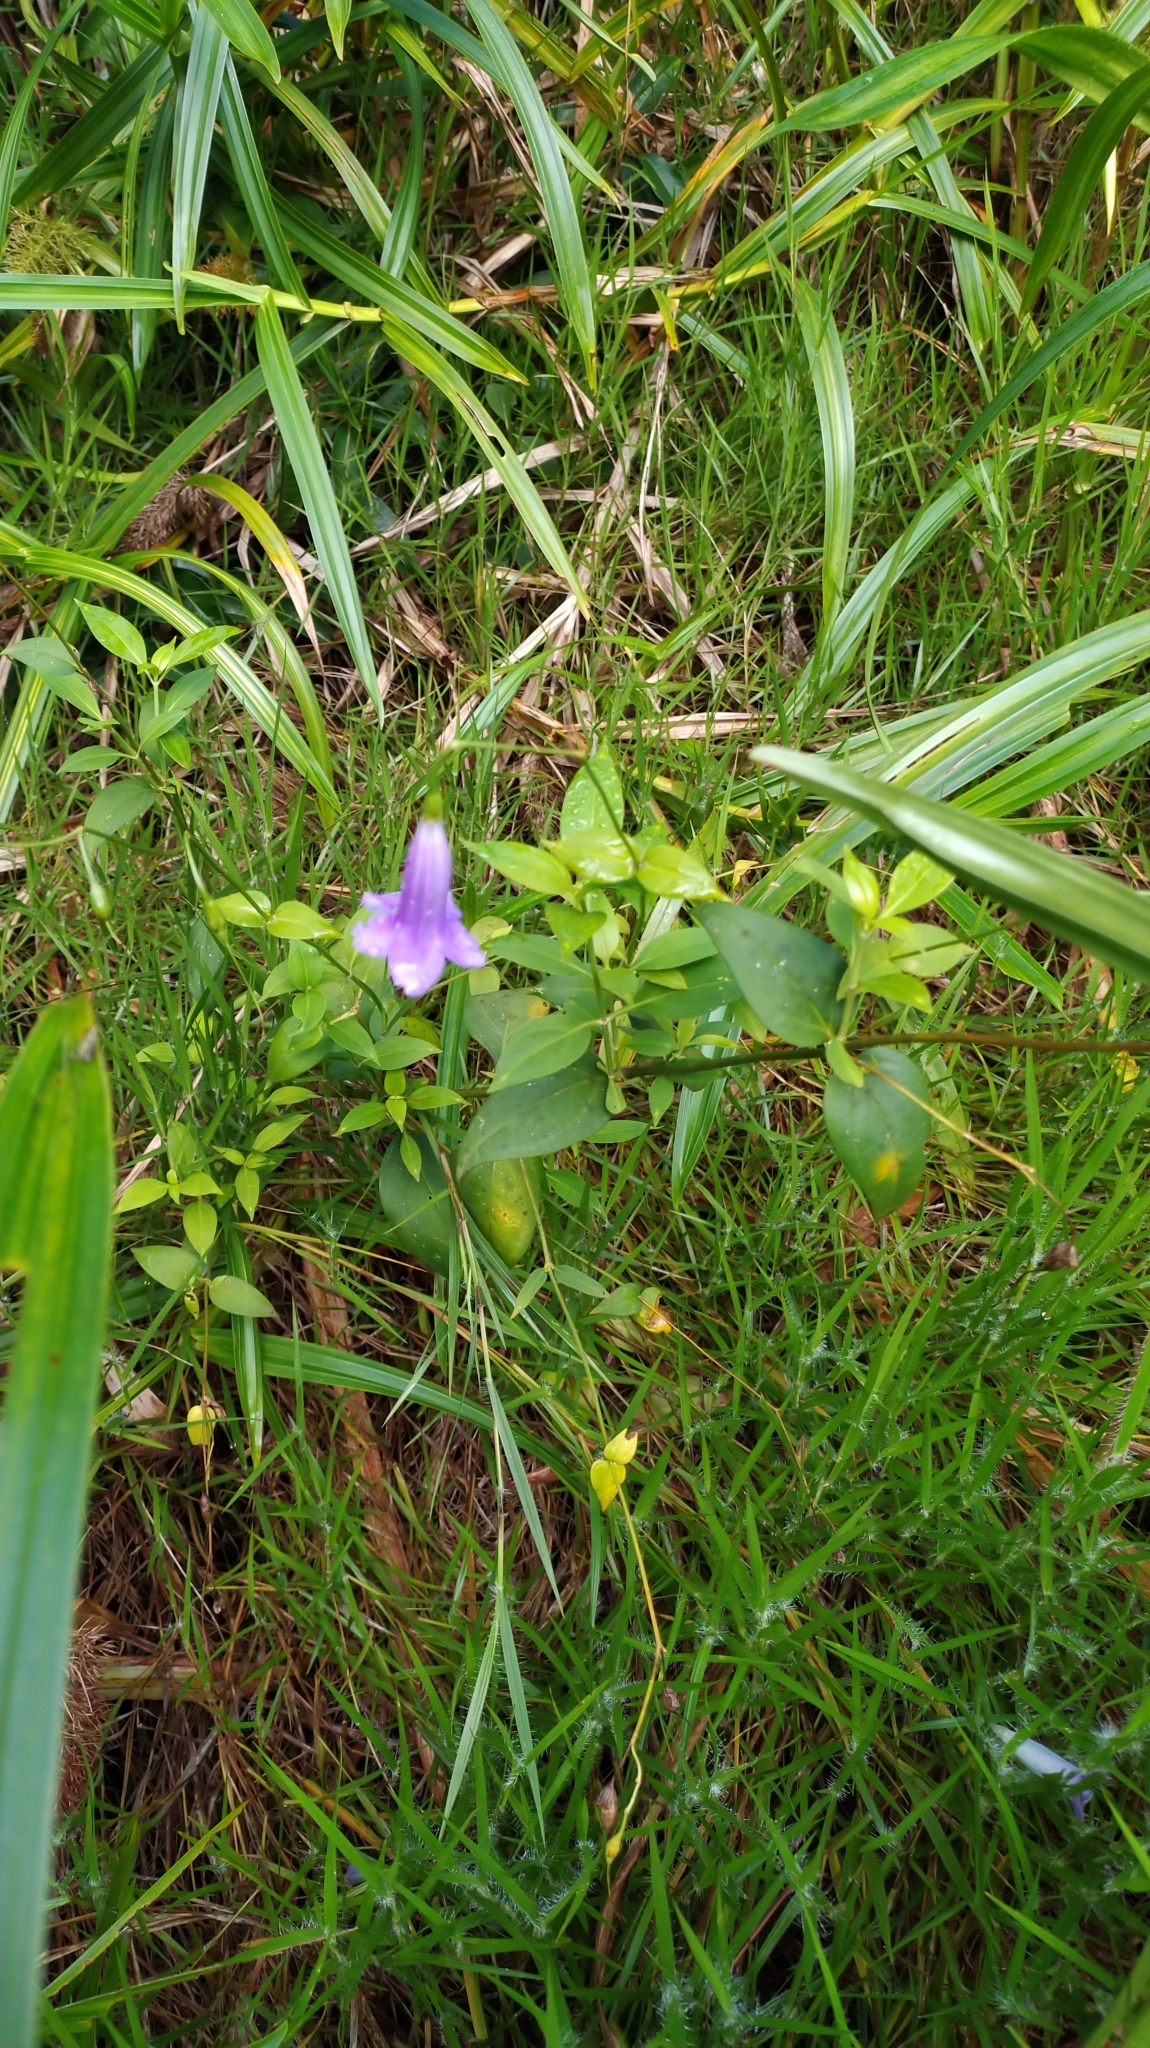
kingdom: Plantae
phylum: Tracheophyta
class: Magnoliopsida
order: Gentianales
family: Gentianaceae
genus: Chelonanthus
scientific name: Chelonanthus purpurascens
